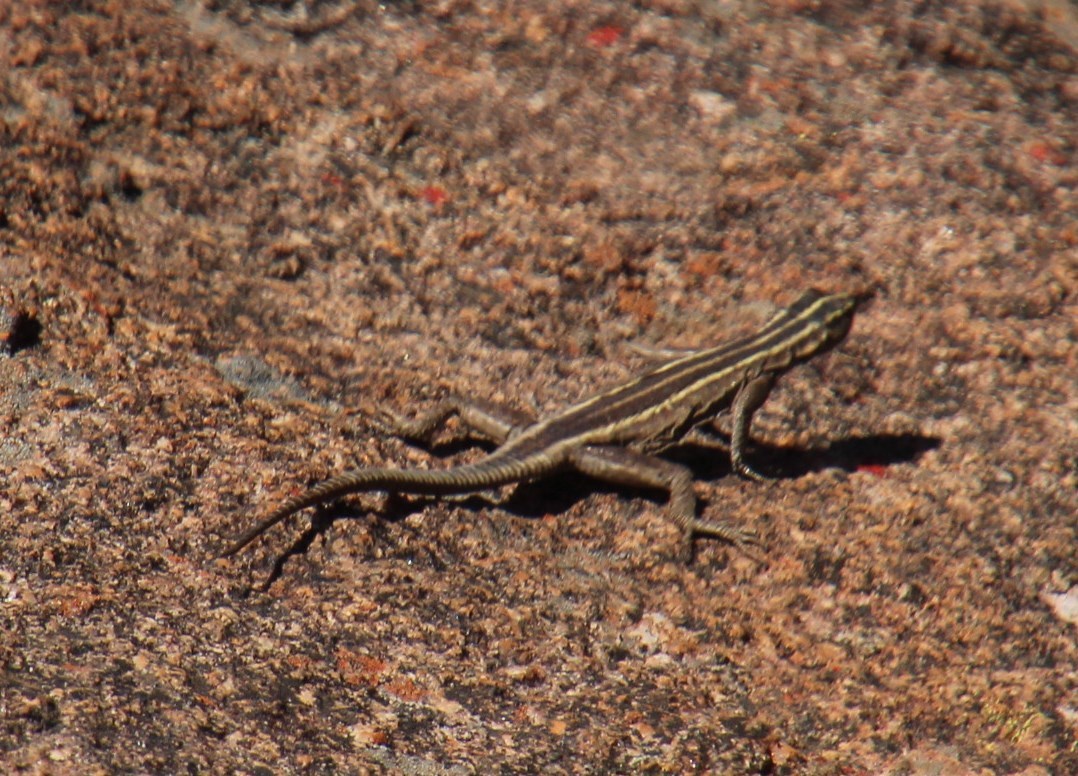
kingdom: Animalia
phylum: Chordata
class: Squamata
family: Cordylidae
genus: Platysaurus
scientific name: Platysaurus capensis
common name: Namaqua flat lizard
